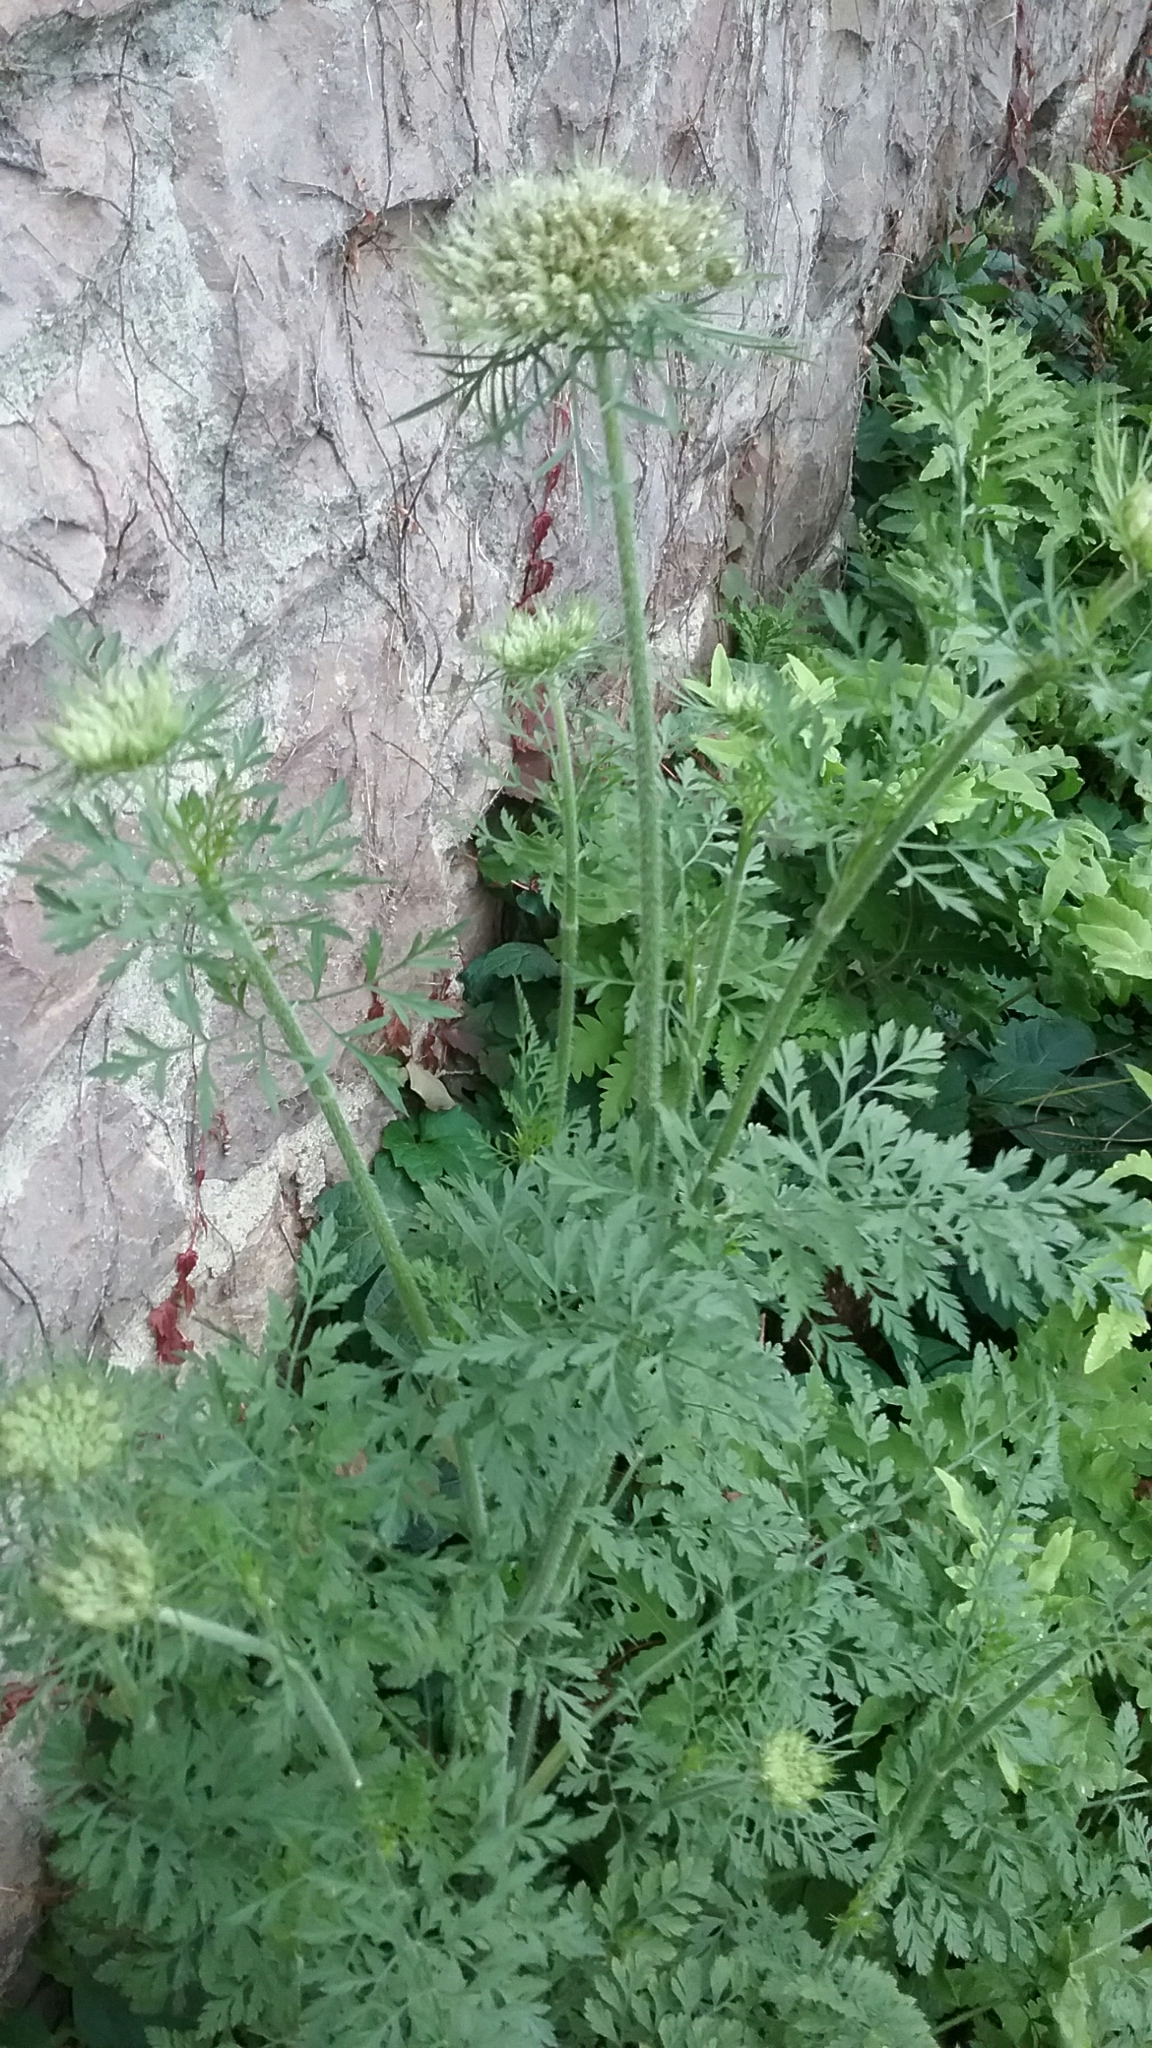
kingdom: Plantae
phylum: Tracheophyta
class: Magnoliopsida
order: Apiales
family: Apiaceae
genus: Daucus
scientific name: Daucus carota
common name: Wild carrot
